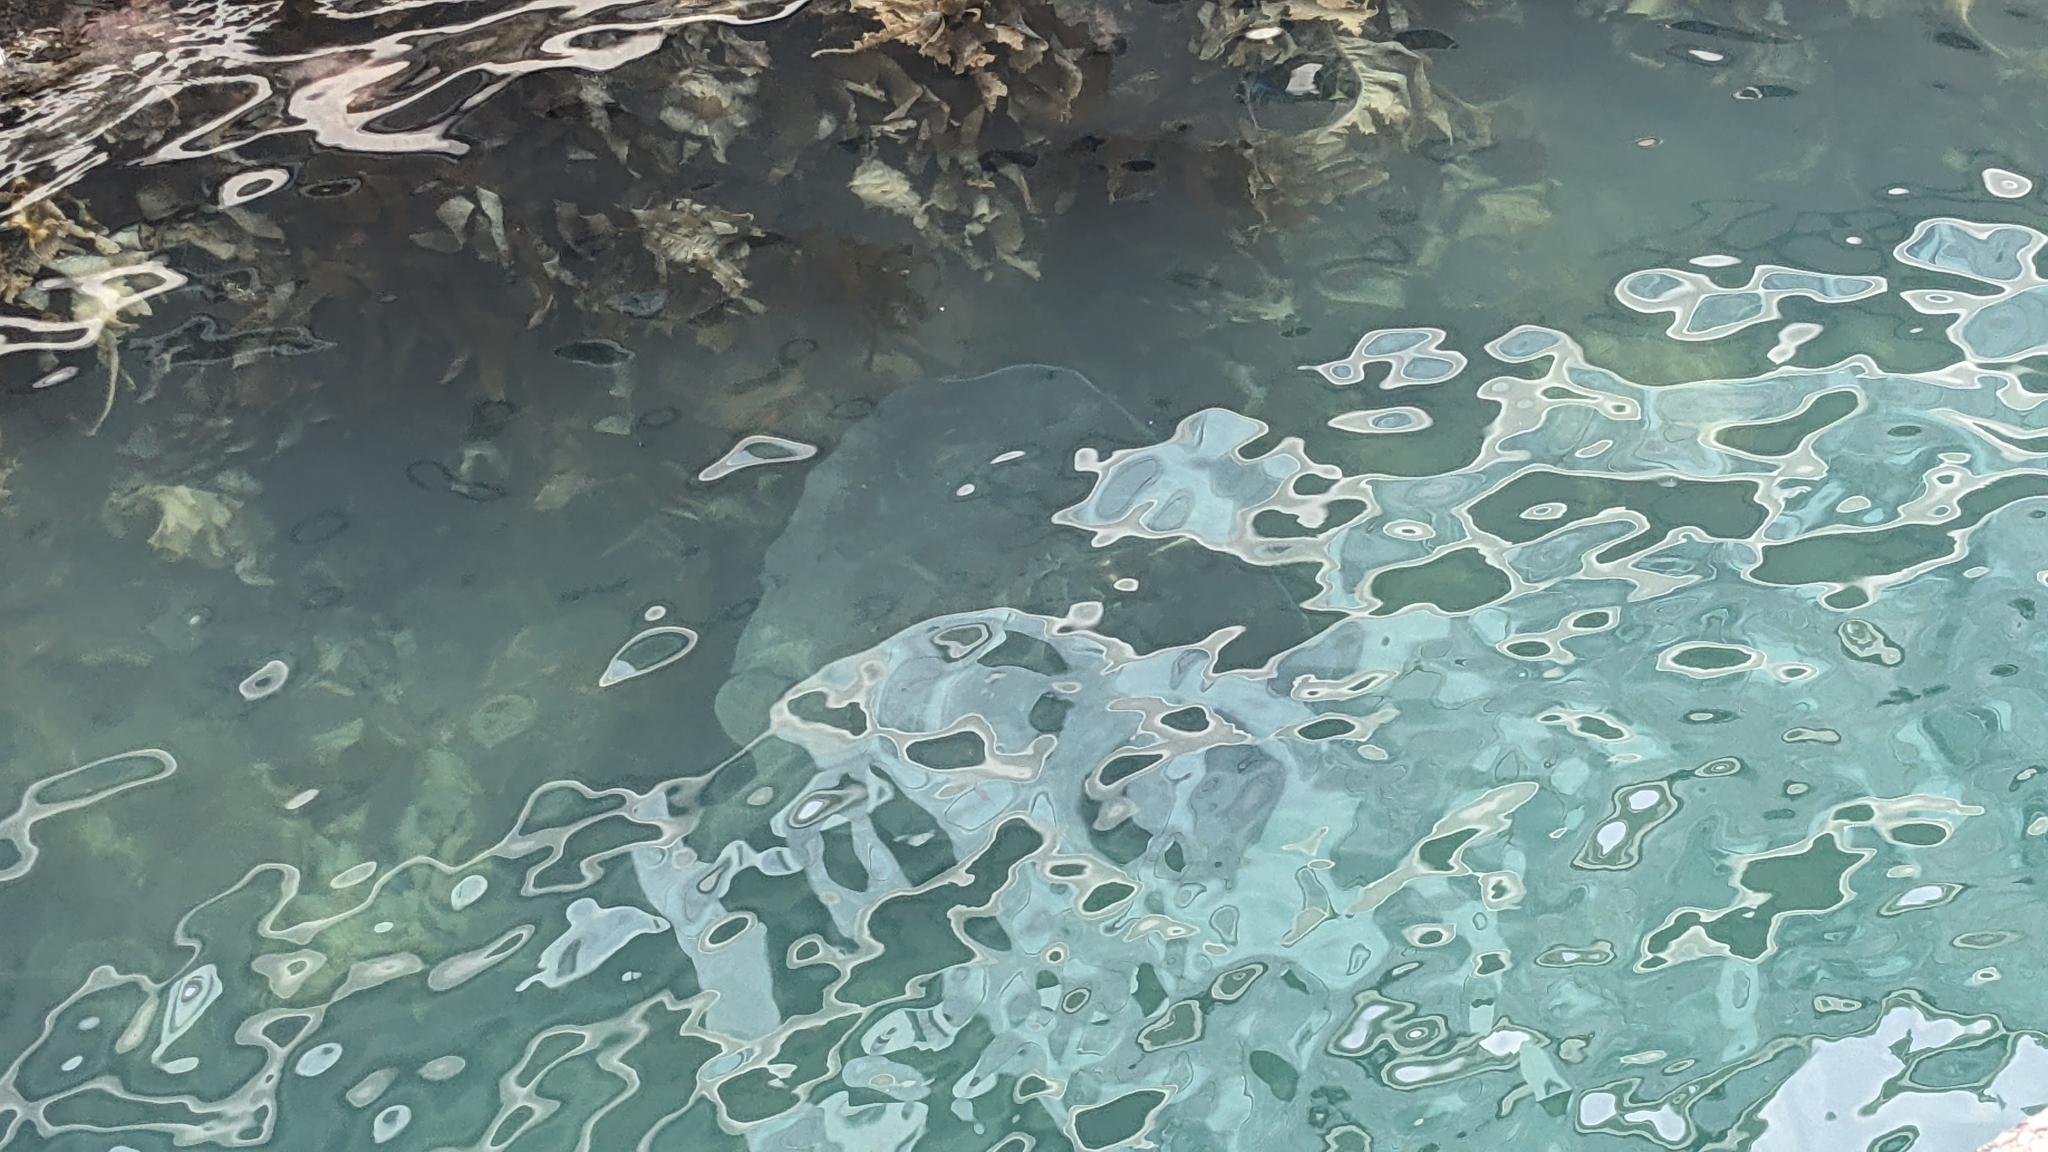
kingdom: Animalia
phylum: Chordata
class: Elasmobranchii
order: Myliobatiformes
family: Dasyatidae
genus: Bathytoshia
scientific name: Bathytoshia brevicaudata
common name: Short-tail stingray
